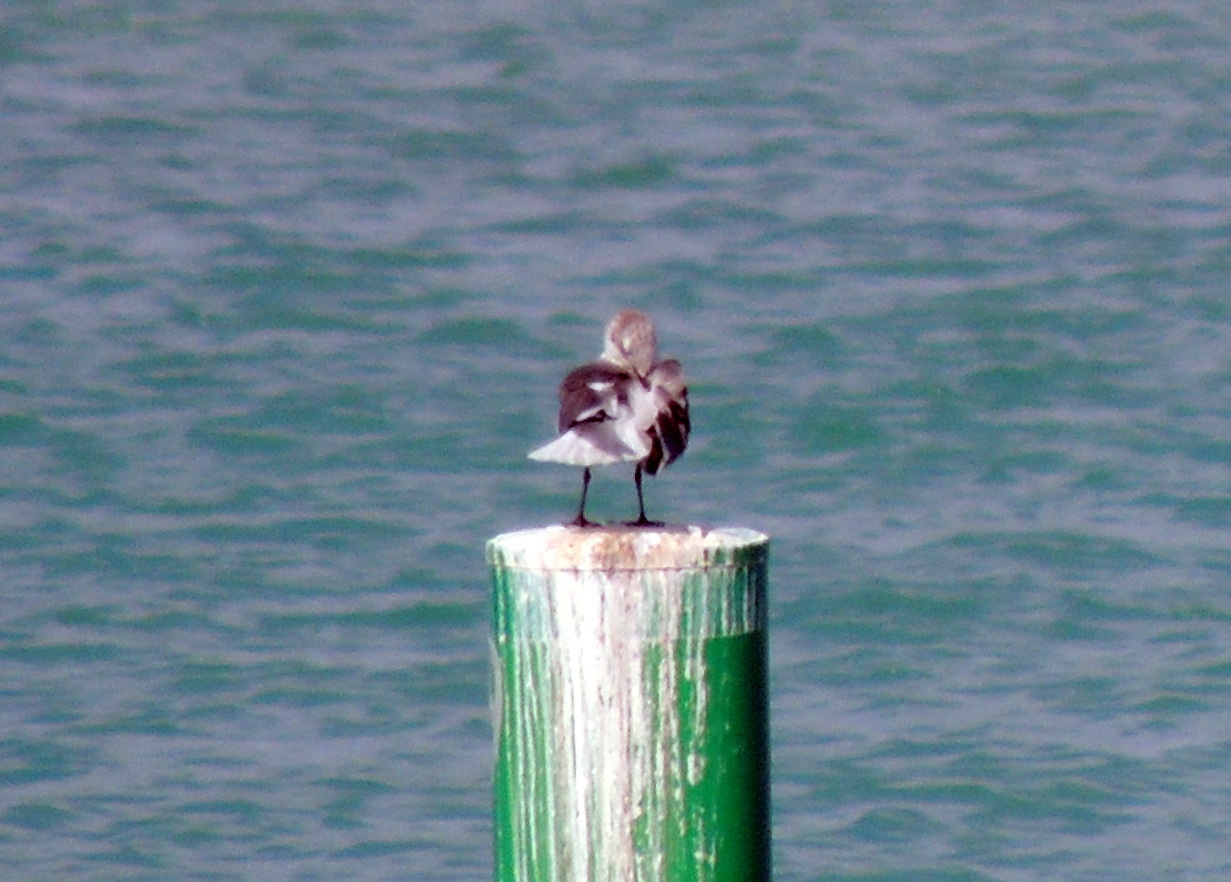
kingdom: Animalia
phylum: Chordata
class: Aves
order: Charadriiformes
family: Laridae
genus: Leucophaeus
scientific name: Leucophaeus atricilla
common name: Laughing gull
